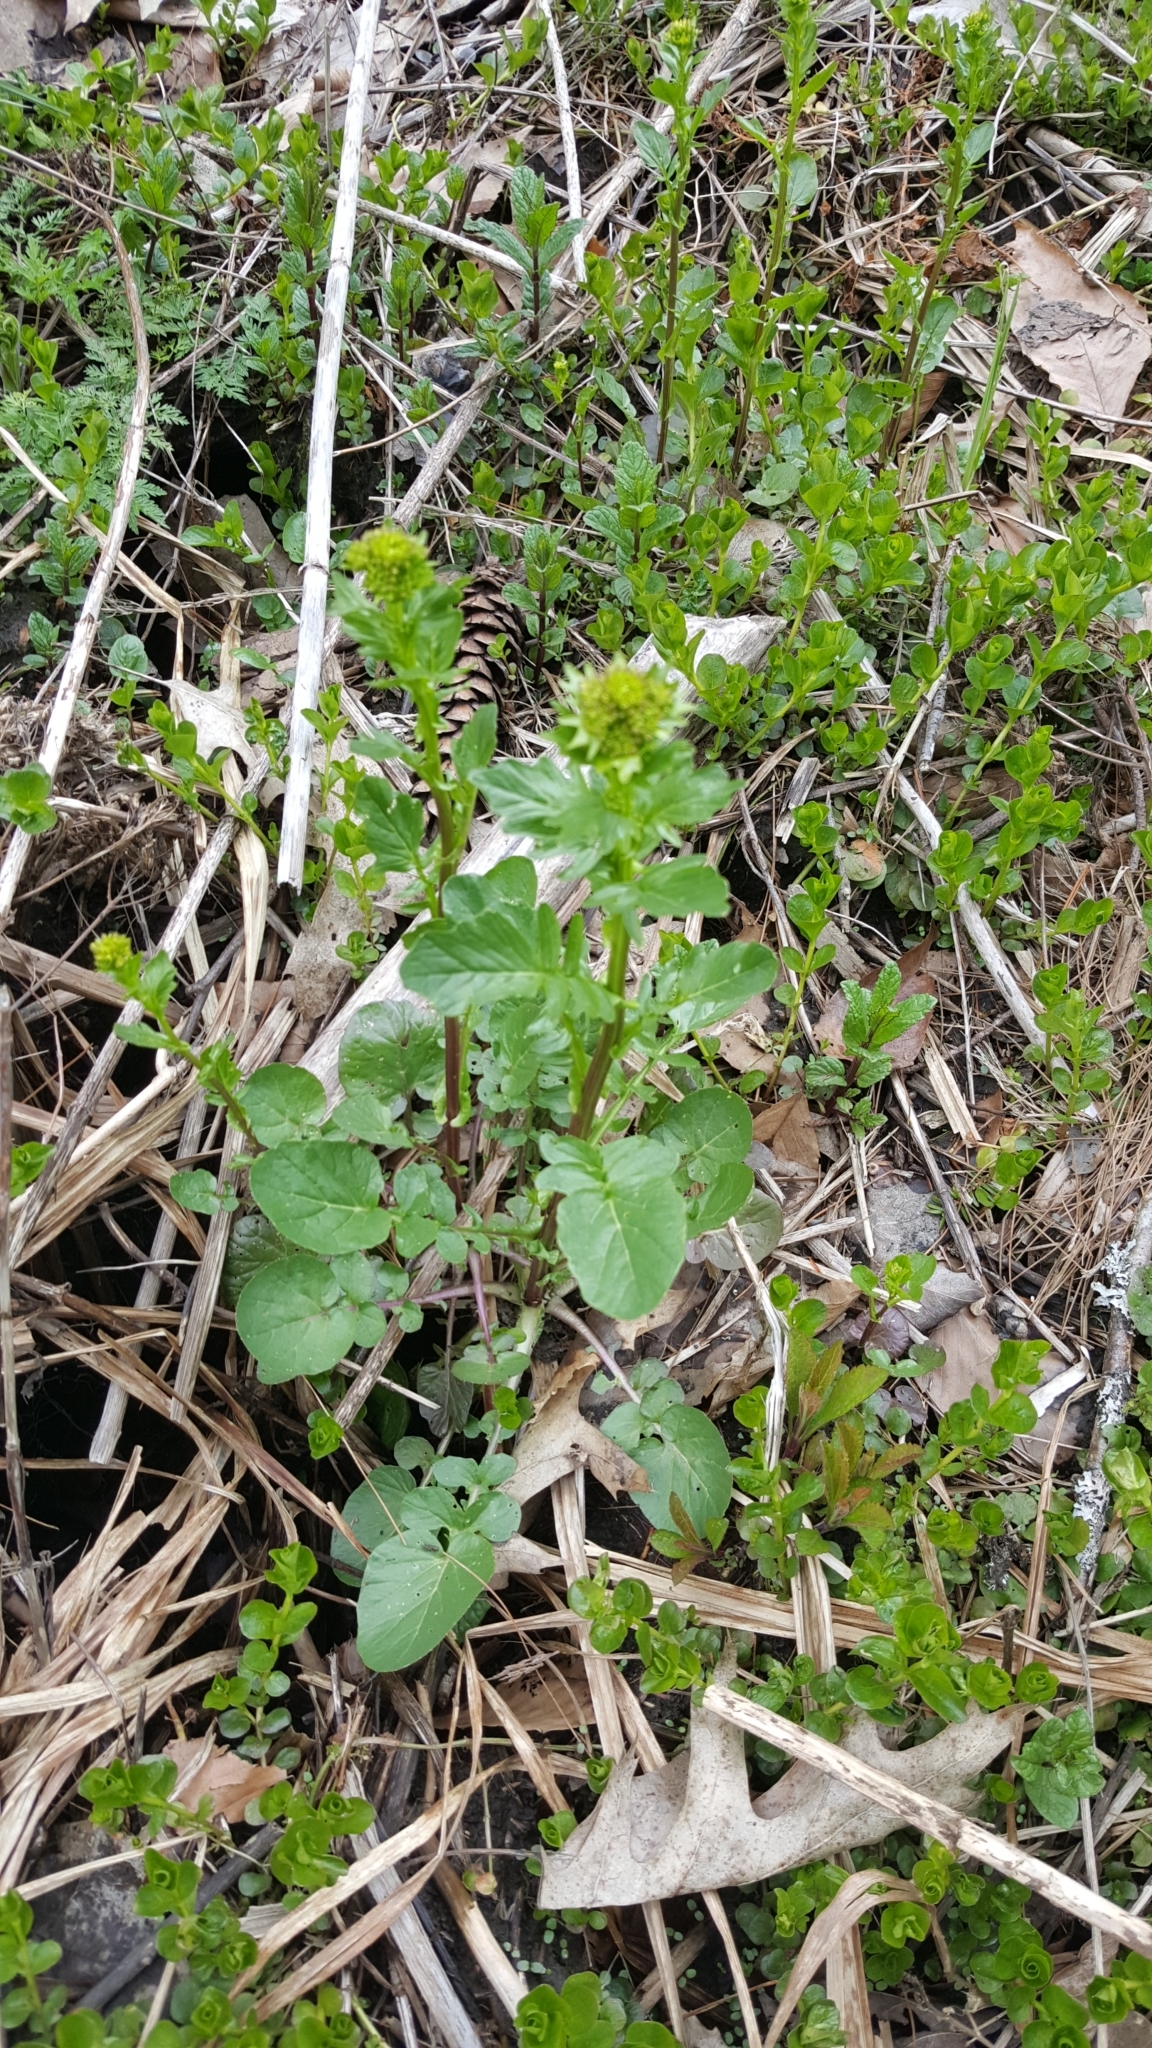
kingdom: Plantae
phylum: Tracheophyta
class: Magnoliopsida
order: Brassicales
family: Brassicaceae
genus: Barbarea
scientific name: Barbarea vulgaris
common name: Cressy-greens
